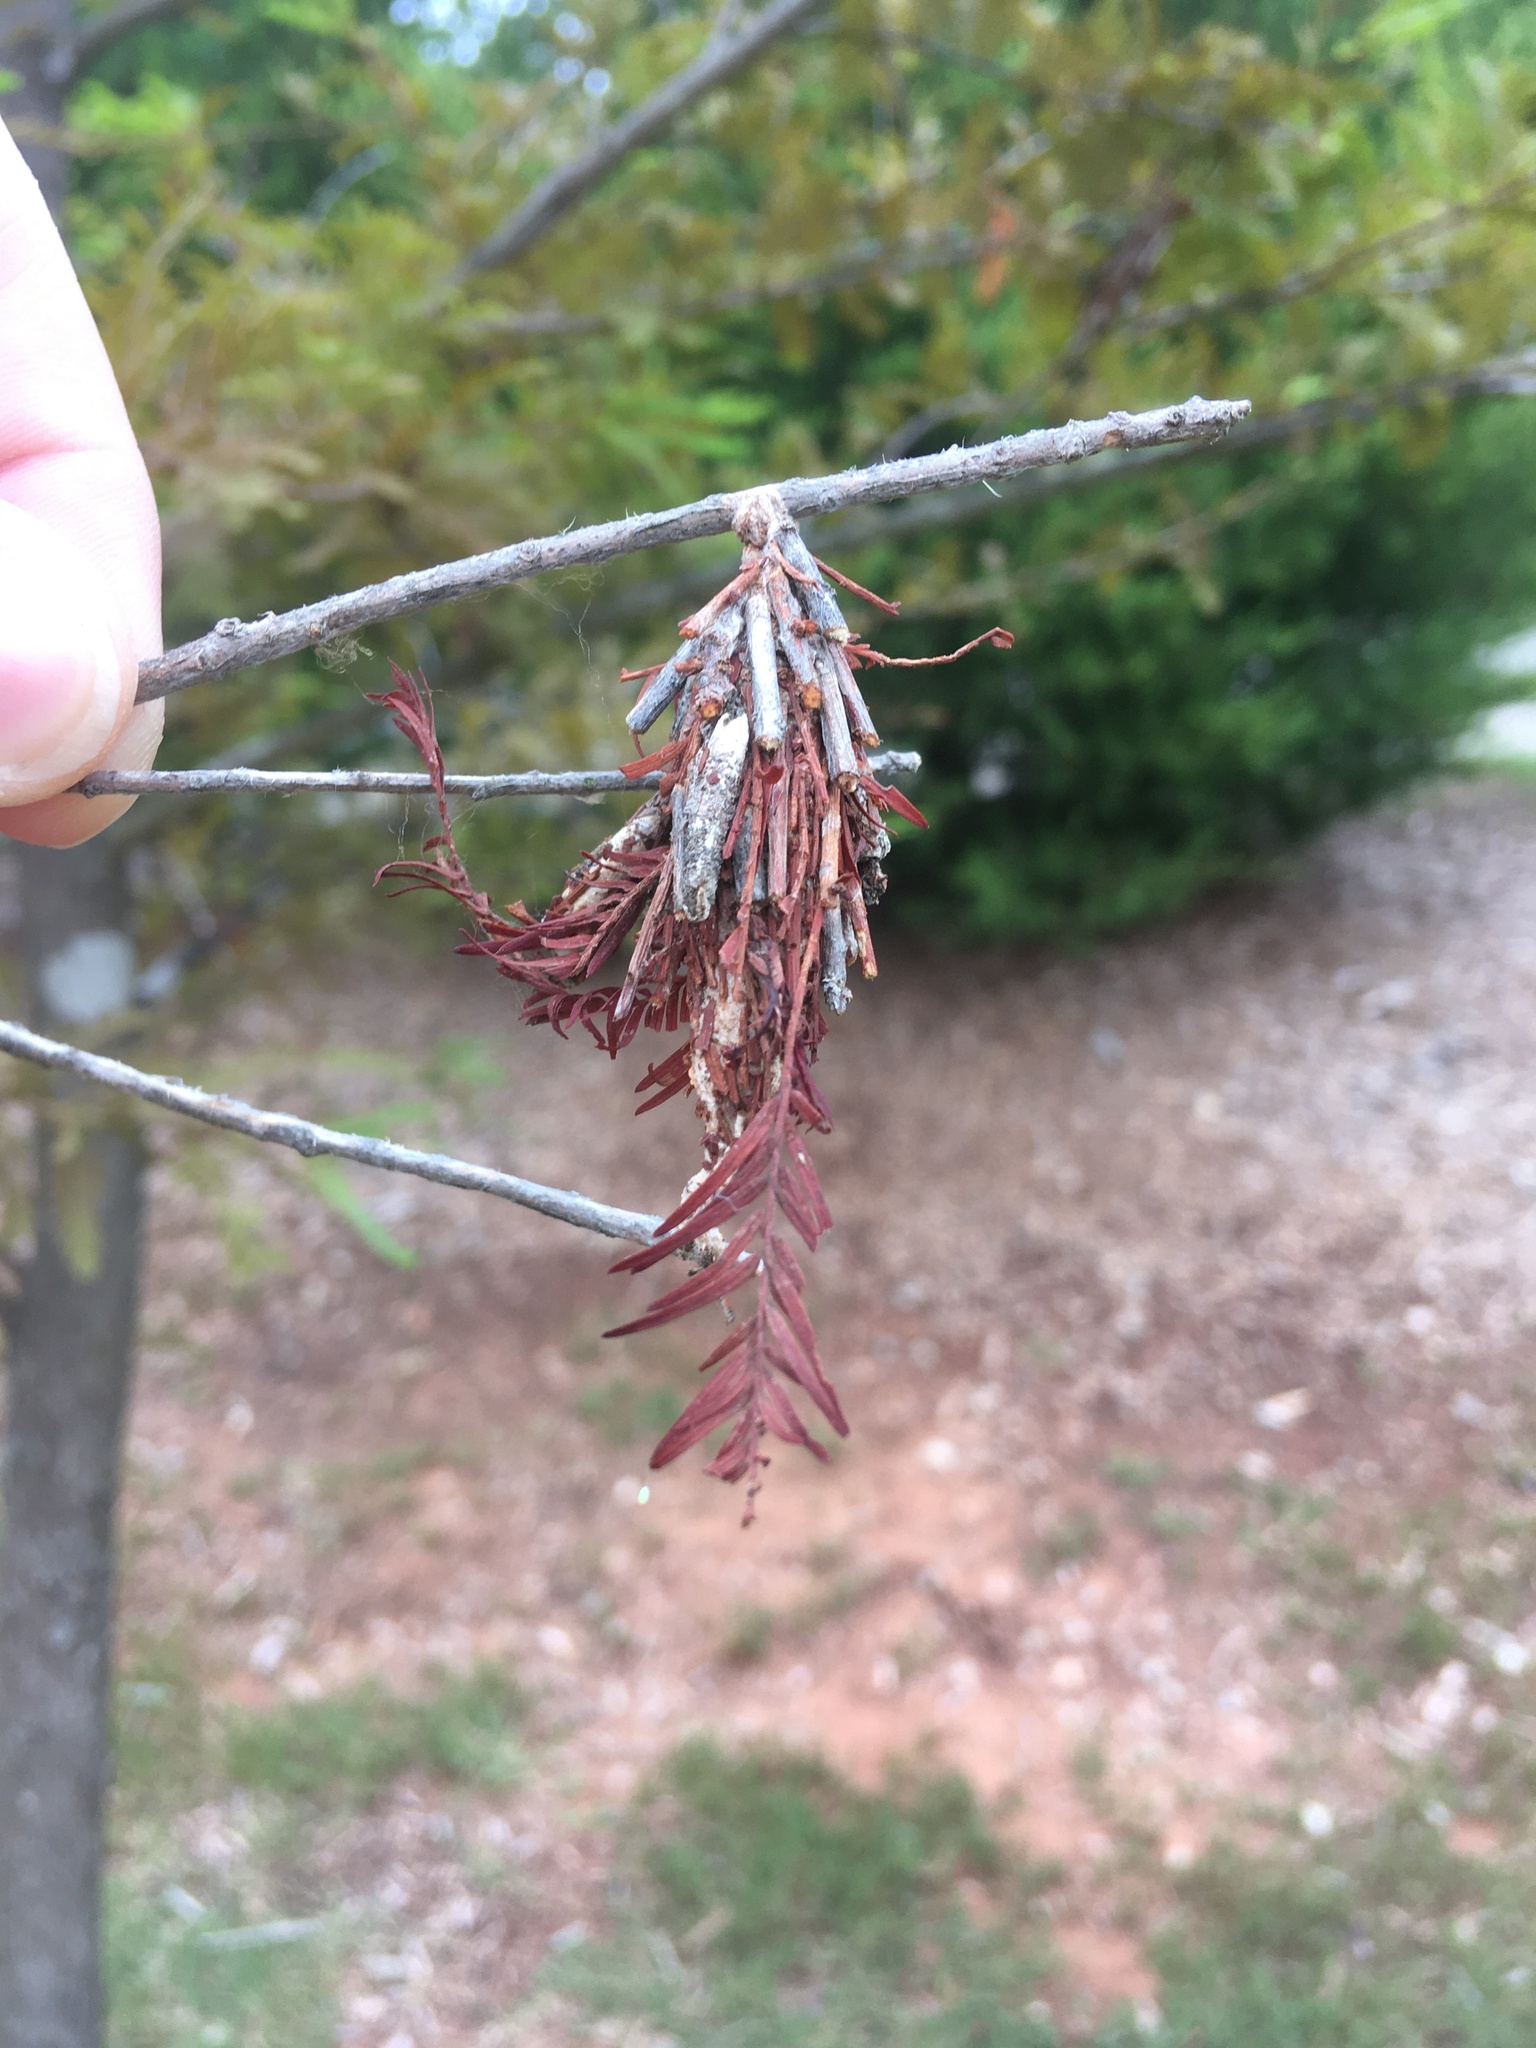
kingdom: Animalia
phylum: Arthropoda
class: Insecta
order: Lepidoptera
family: Psychidae
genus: Thyridopteryx
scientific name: Thyridopteryx ephemeraeformis
